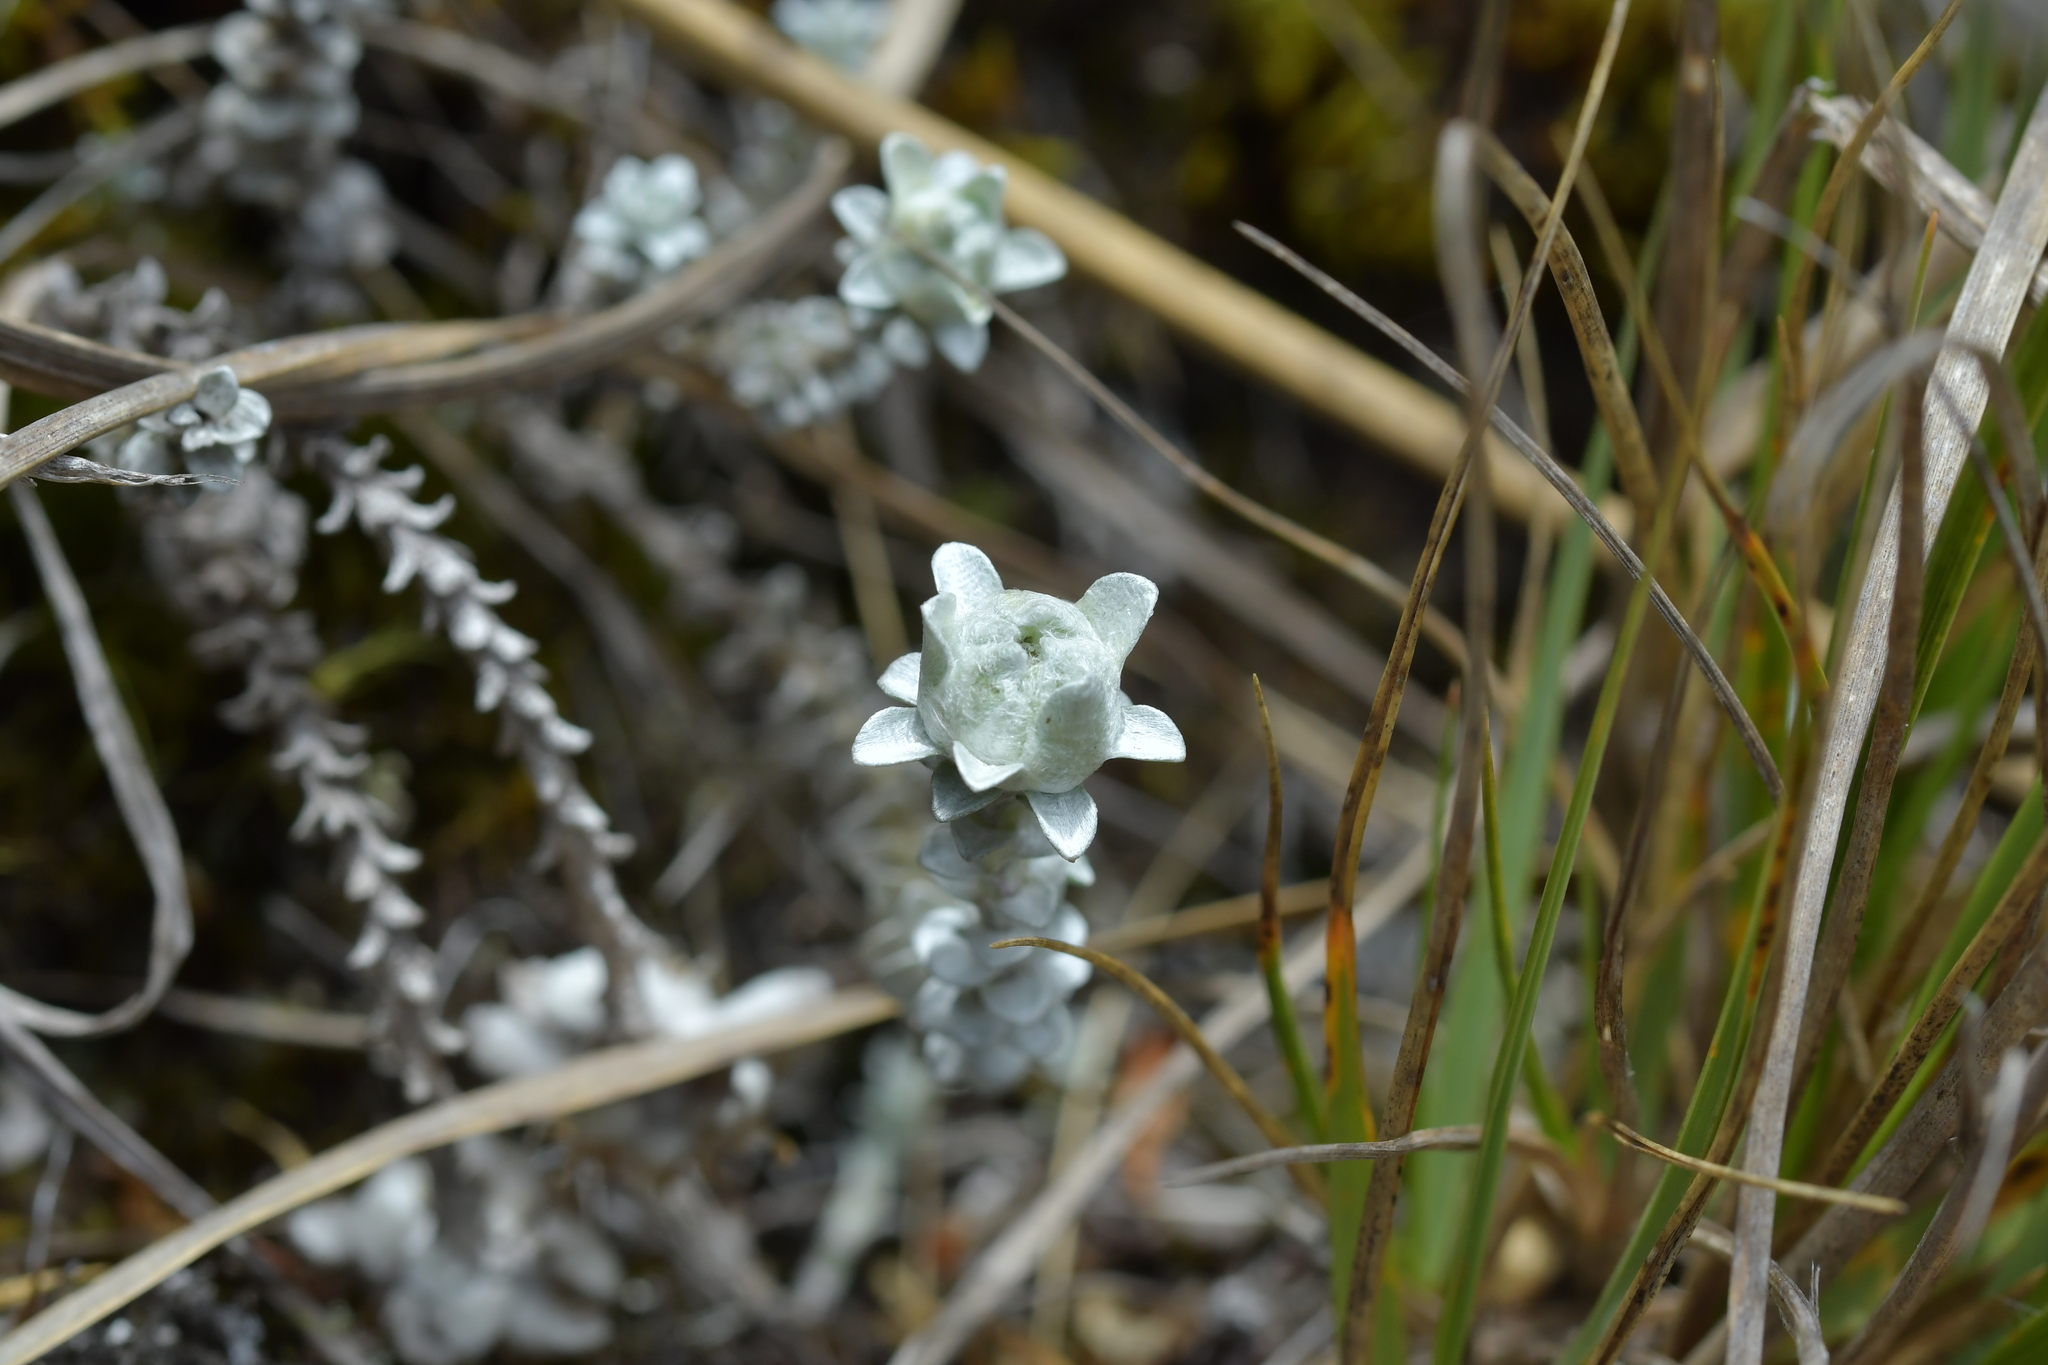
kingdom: Plantae
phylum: Tracheophyta
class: Magnoliopsida
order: Asterales
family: Asteraceae
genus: Leucogenes
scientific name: Leucogenes grandiceps
